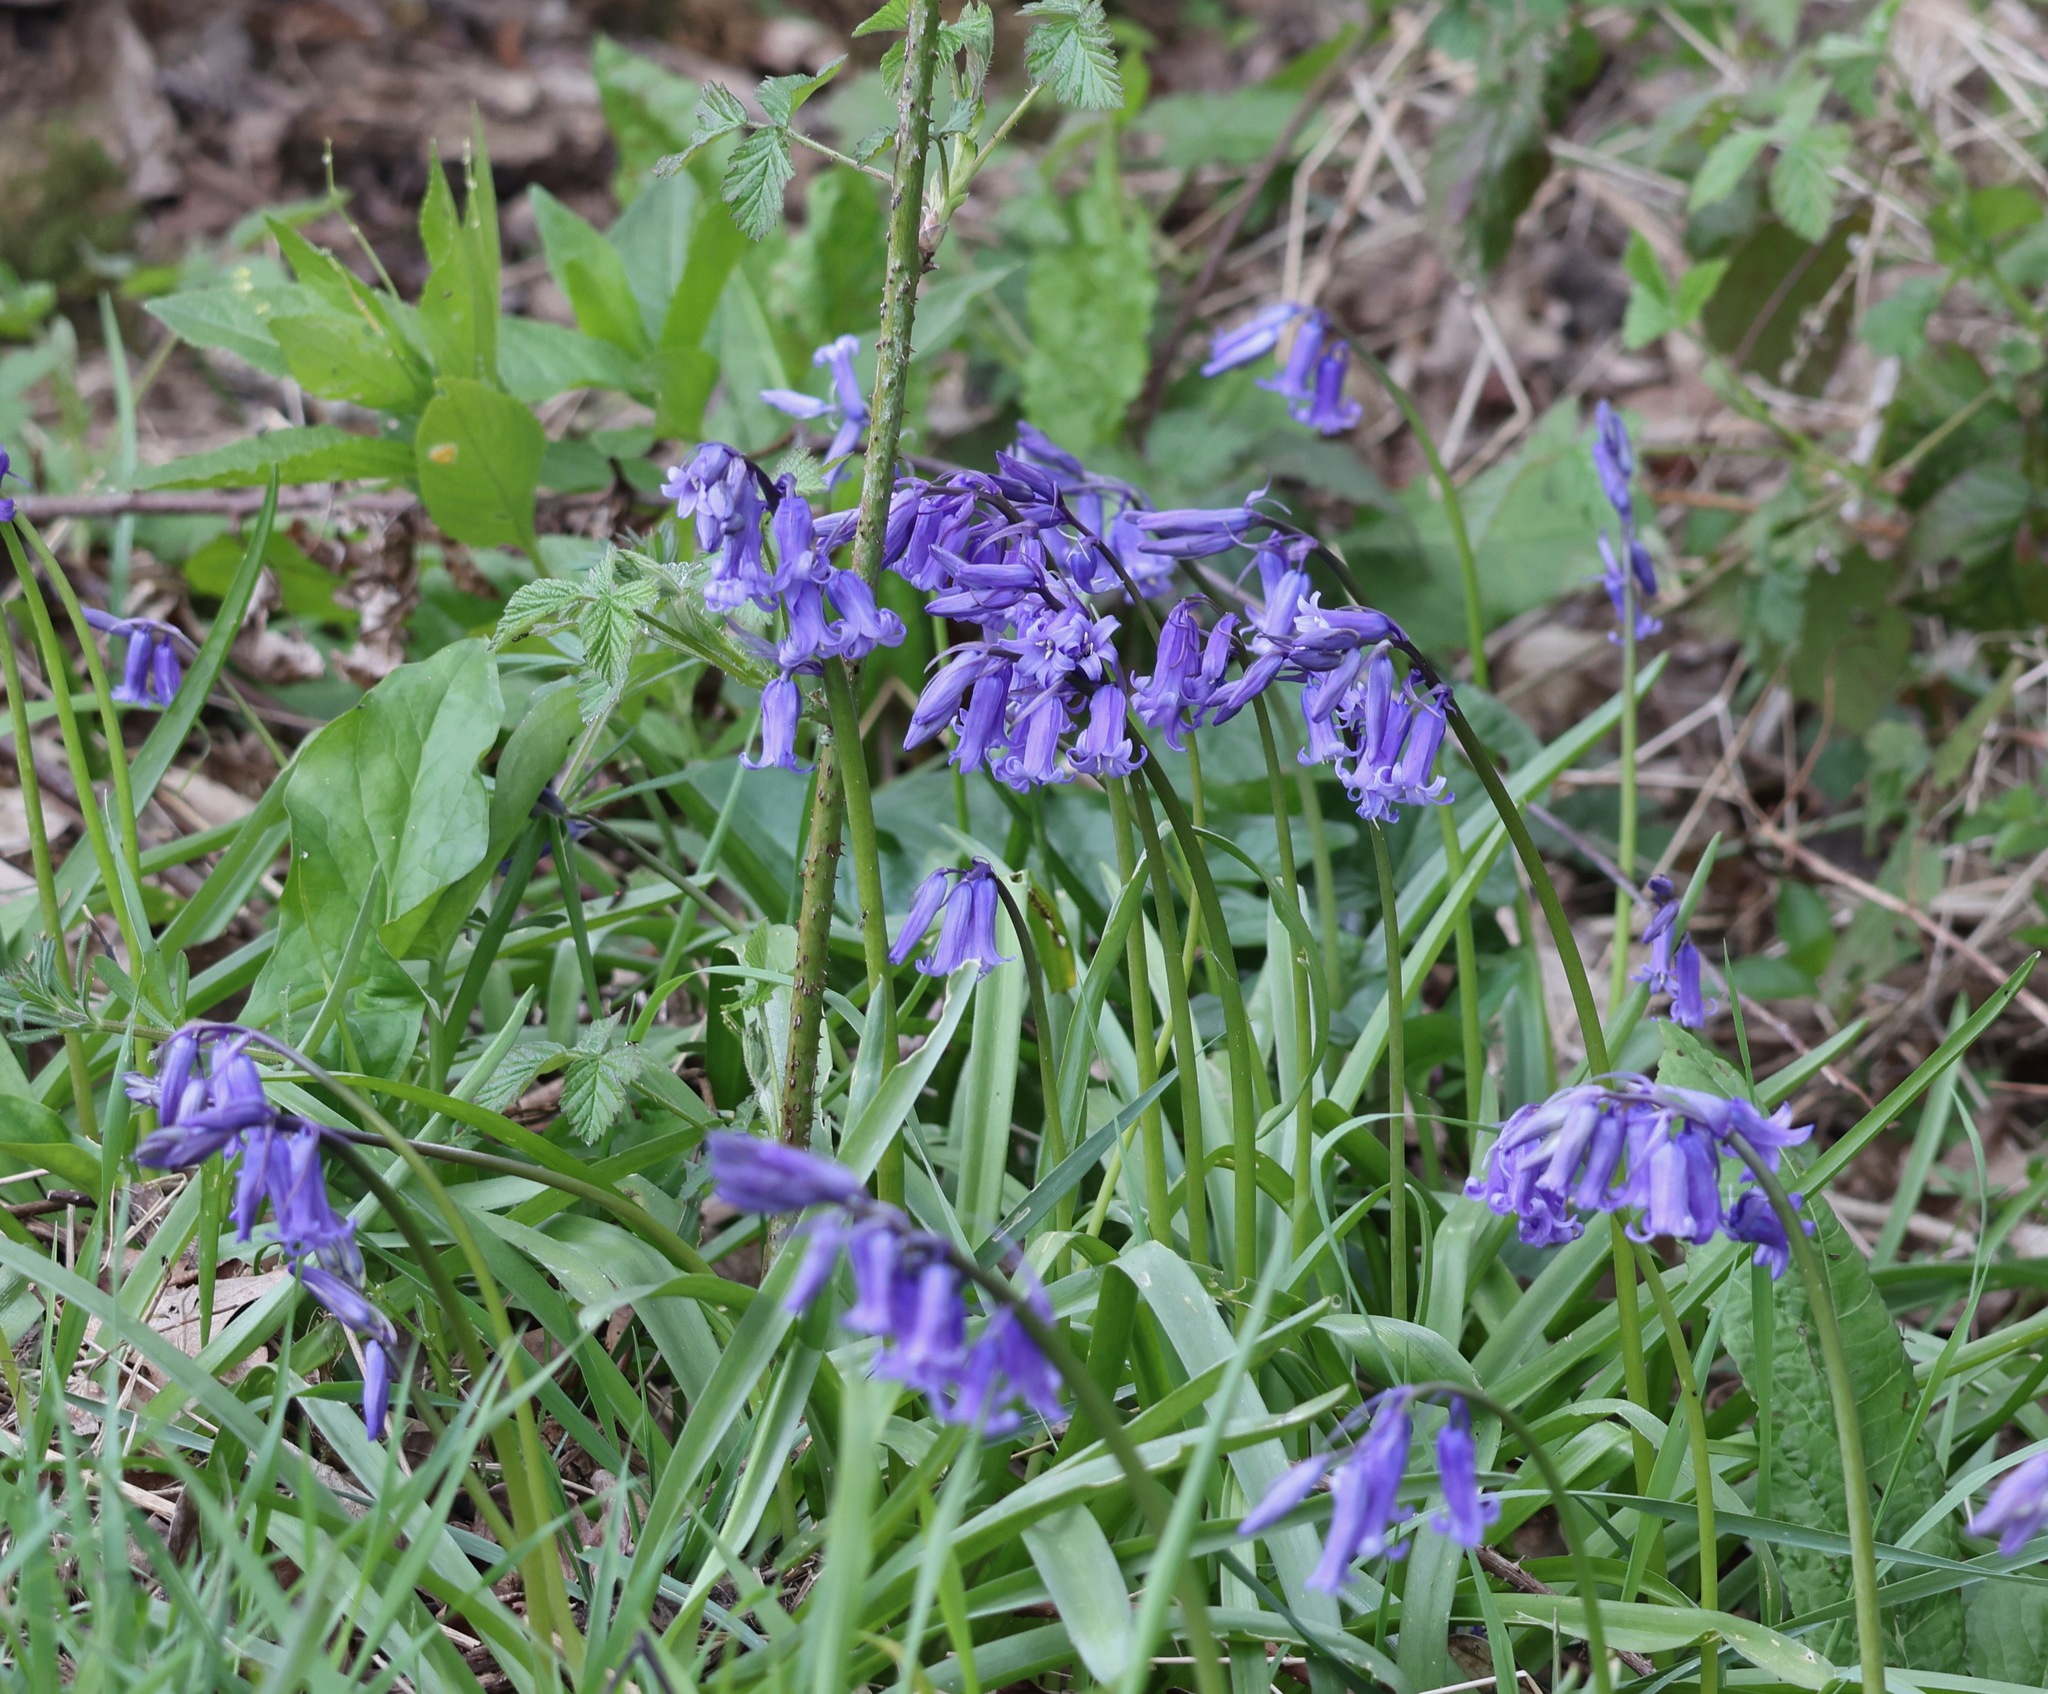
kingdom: Plantae
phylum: Tracheophyta
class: Liliopsida
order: Asparagales
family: Asparagaceae
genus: Hyacinthoides
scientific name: Hyacinthoides non-scripta
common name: Bluebell
